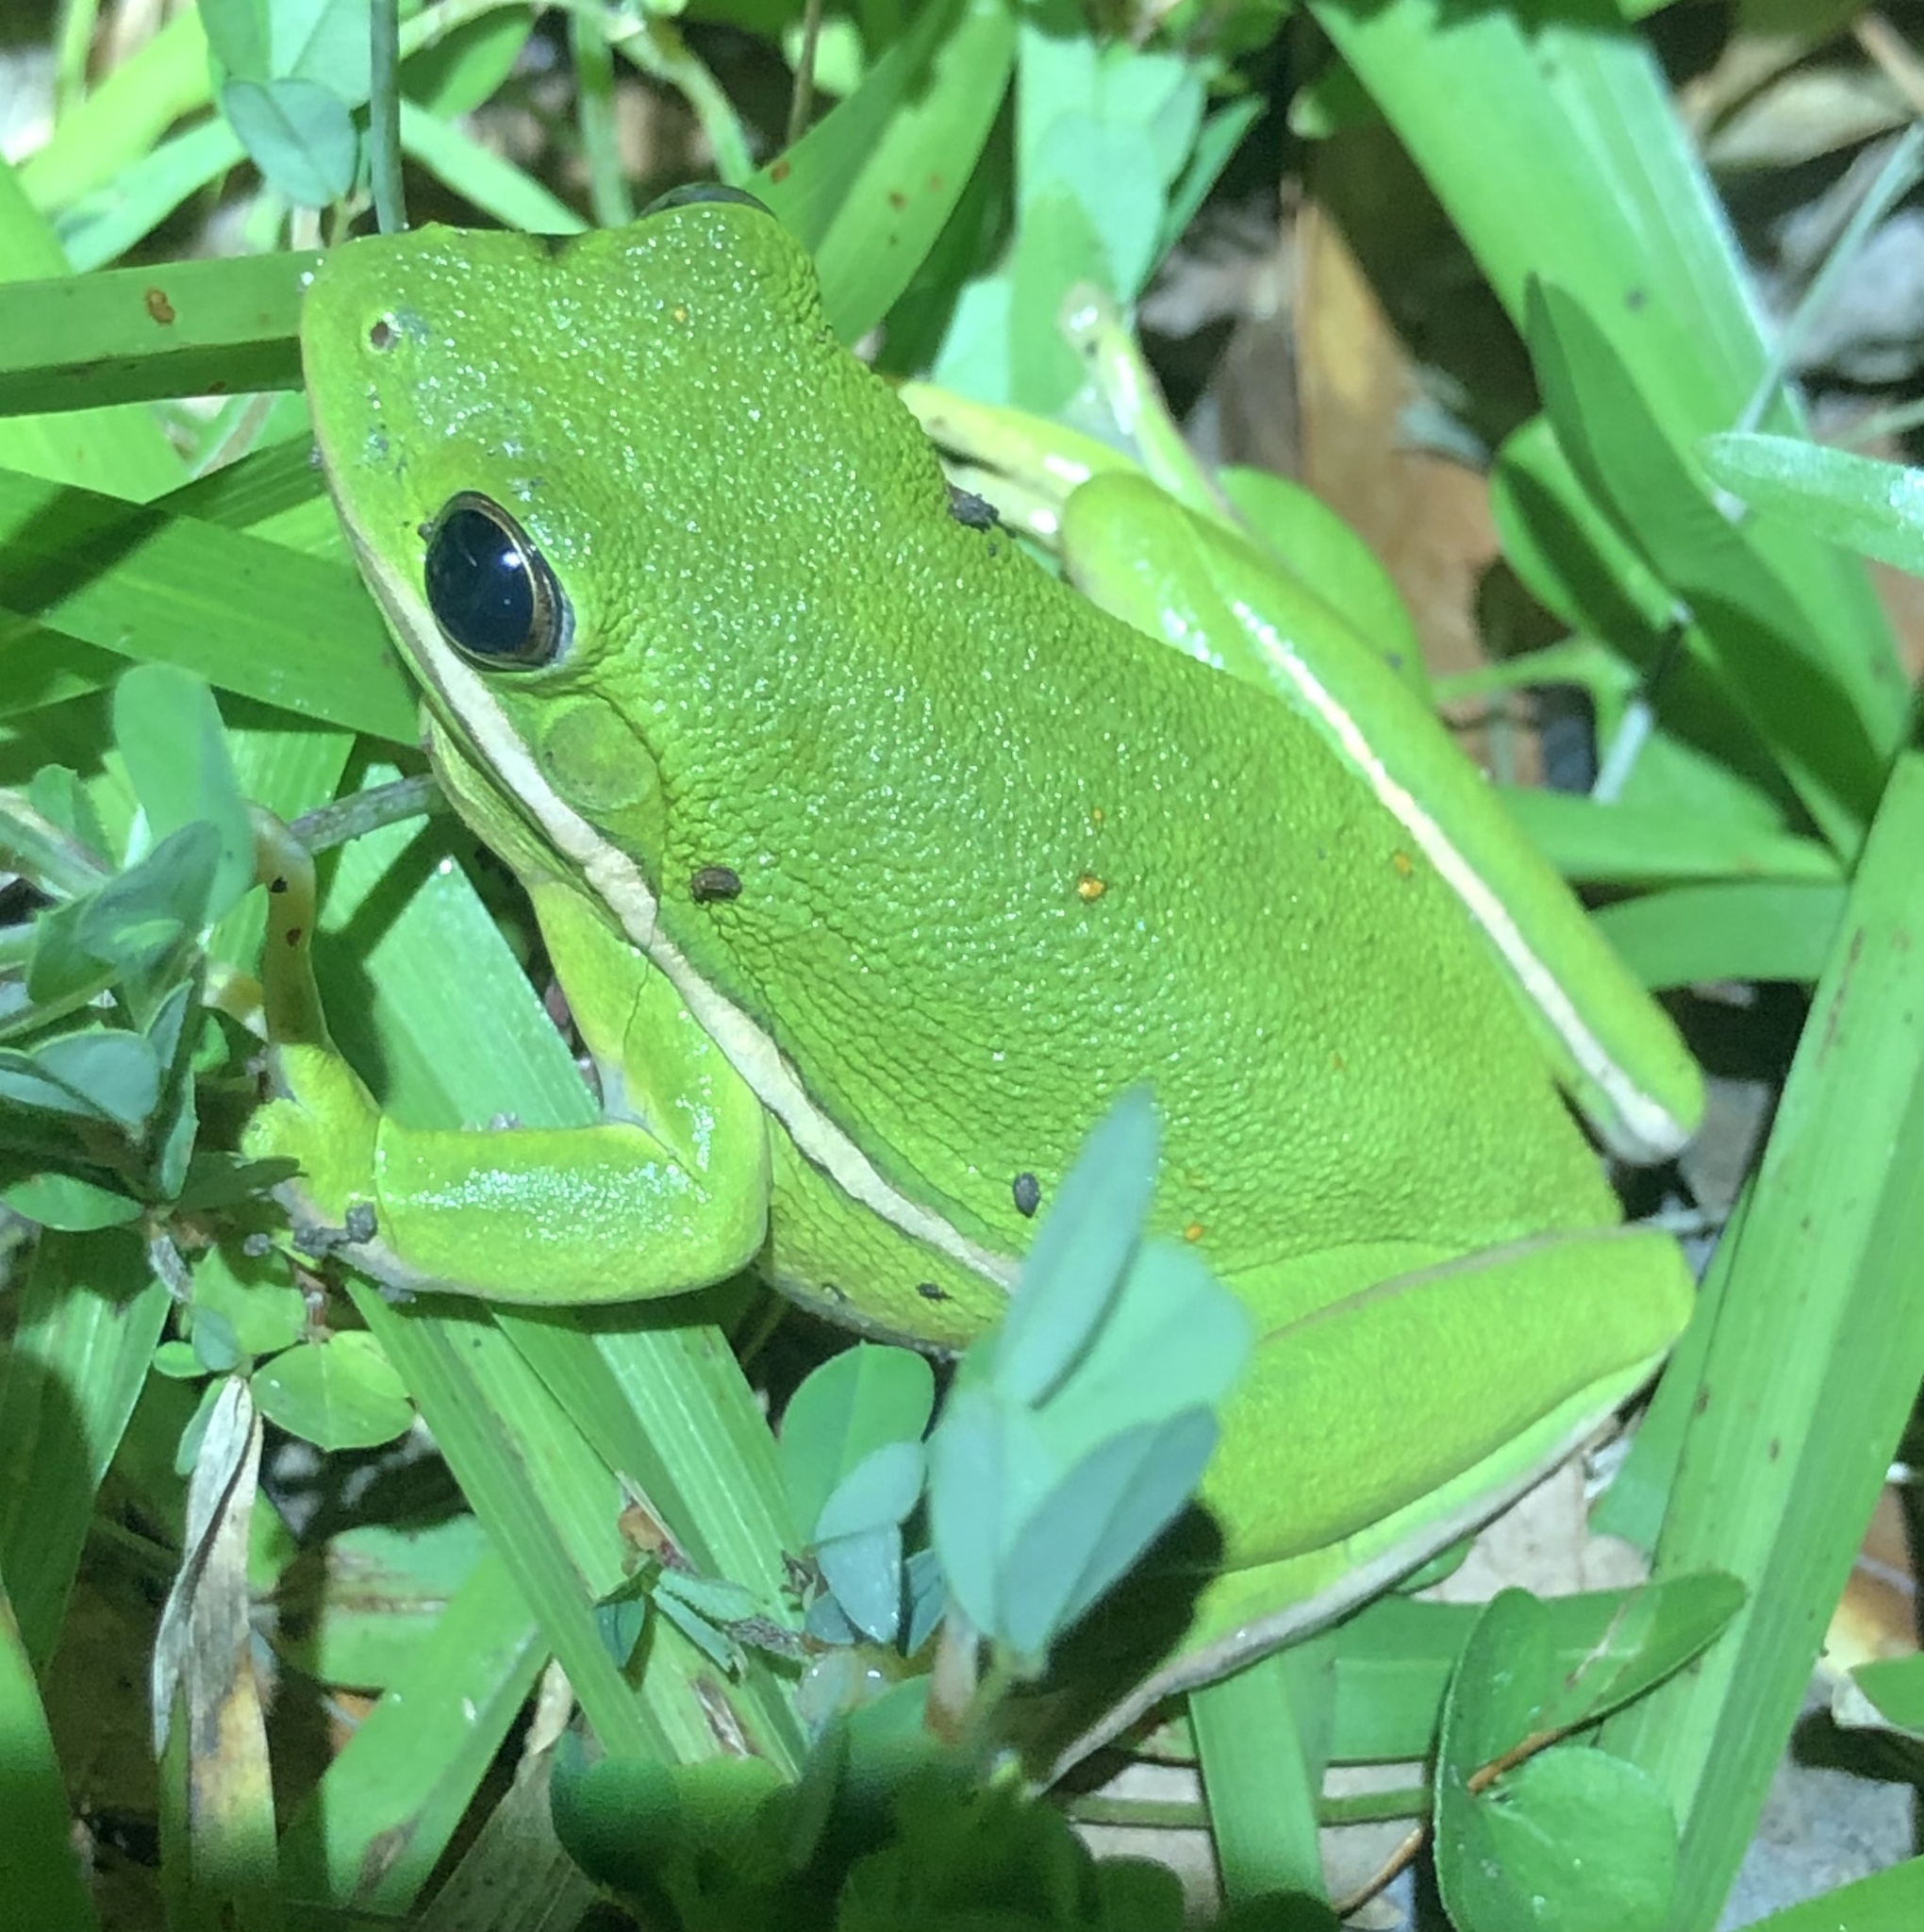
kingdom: Animalia
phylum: Chordata
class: Amphibia
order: Anura
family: Hylidae
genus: Dryophytes
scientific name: Dryophytes cinereus
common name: Green treefrog
